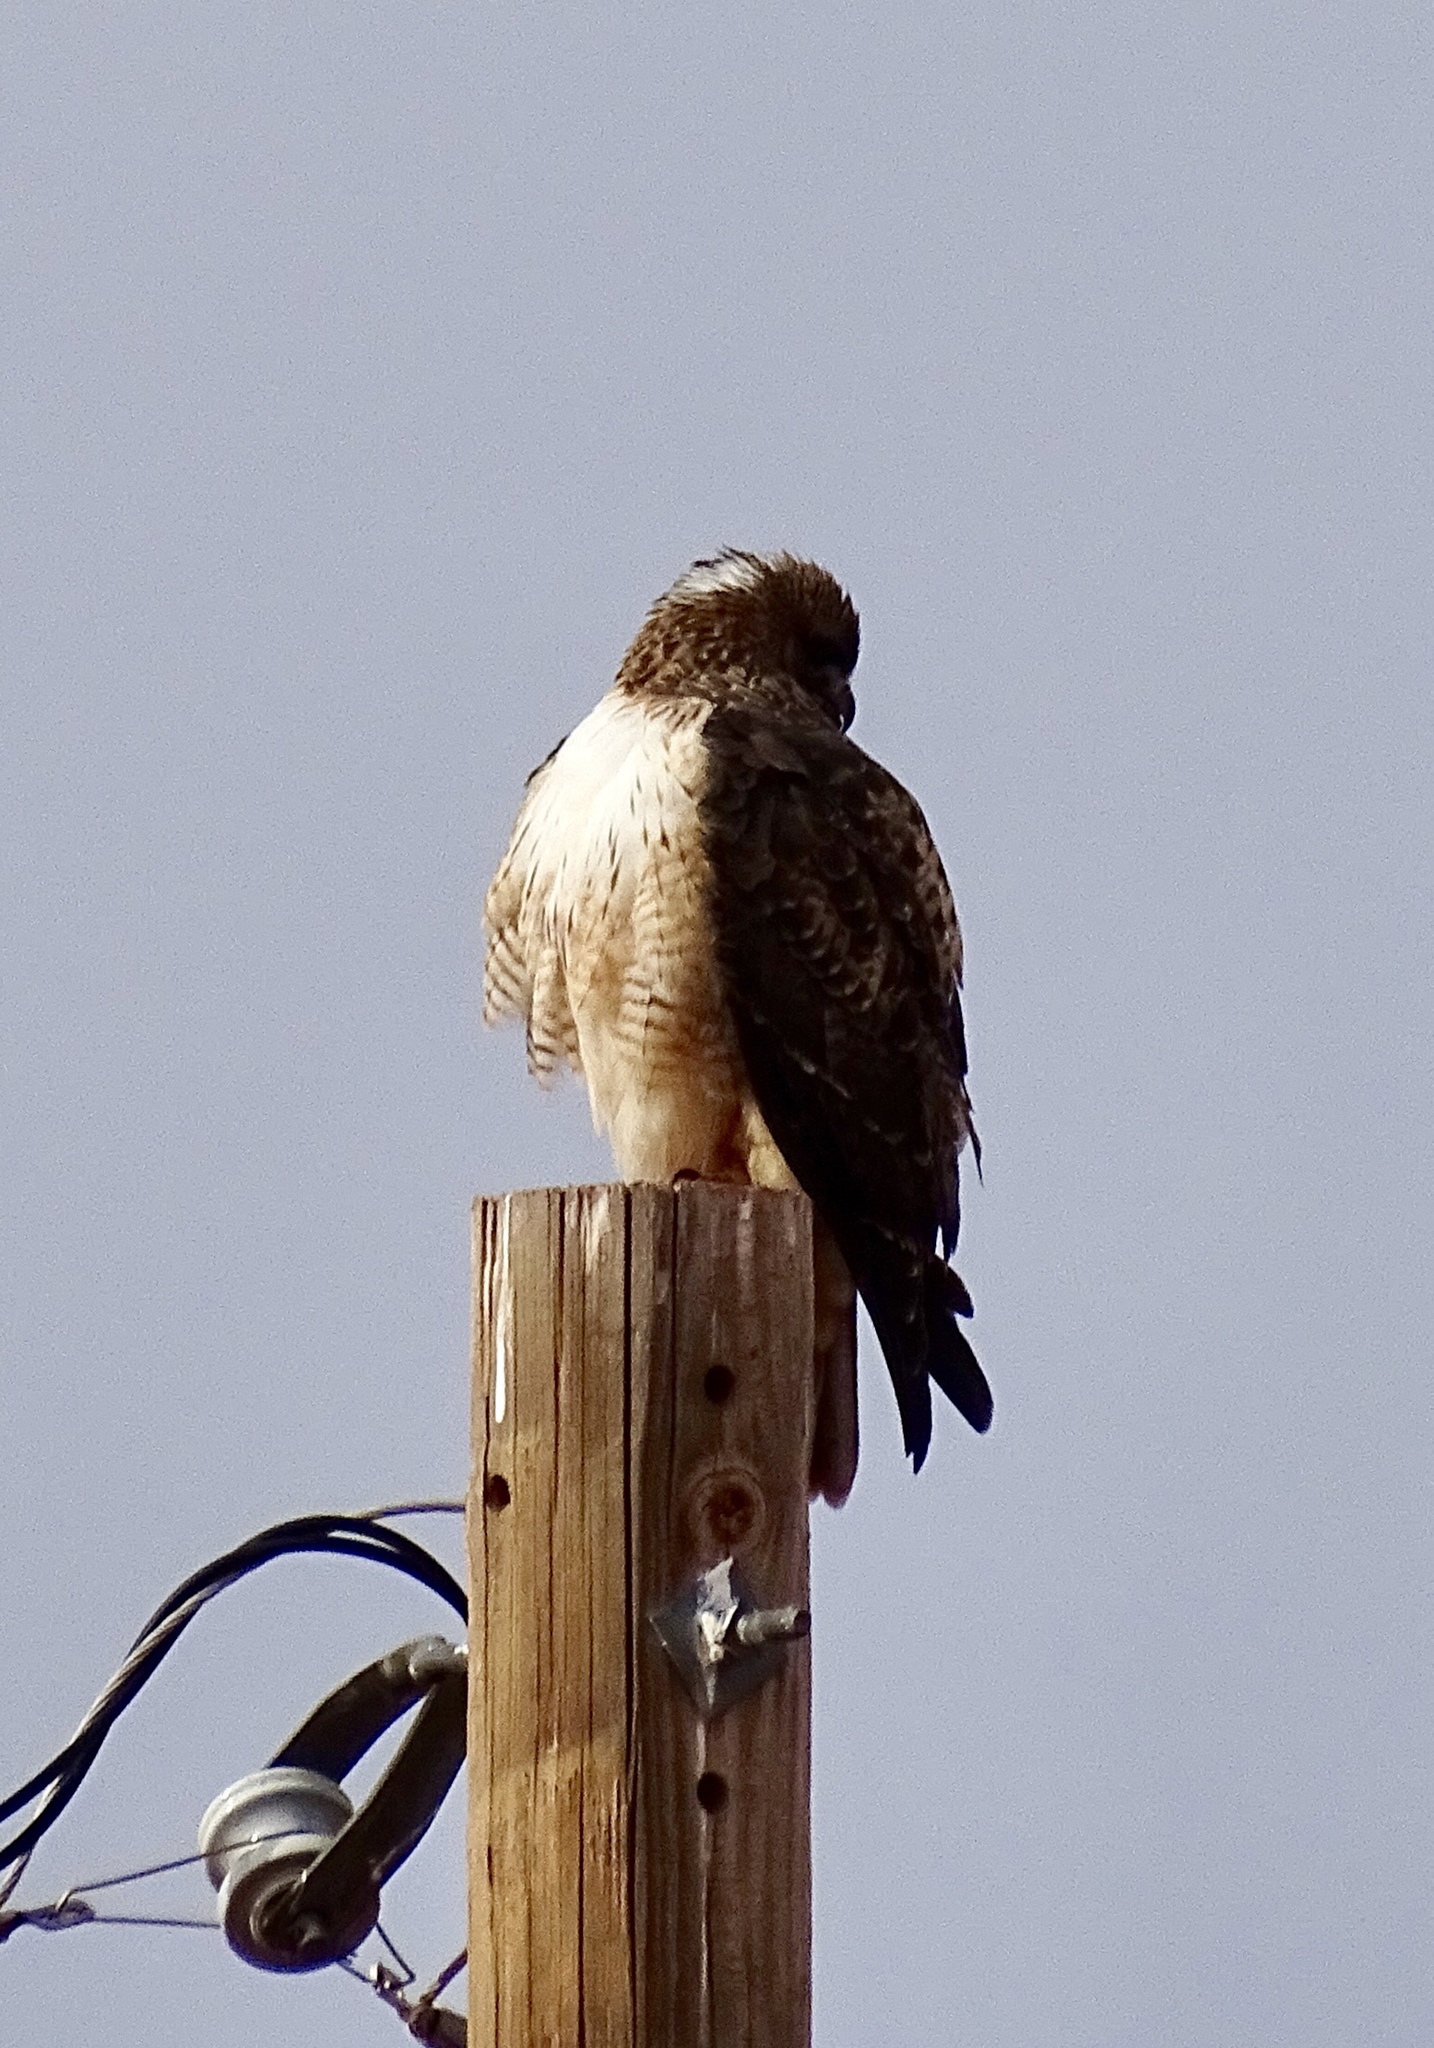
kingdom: Animalia
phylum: Chordata
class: Aves
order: Accipitriformes
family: Accipitridae
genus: Buteo
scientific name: Buteo jamaicensis
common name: Red-tailed hawk
